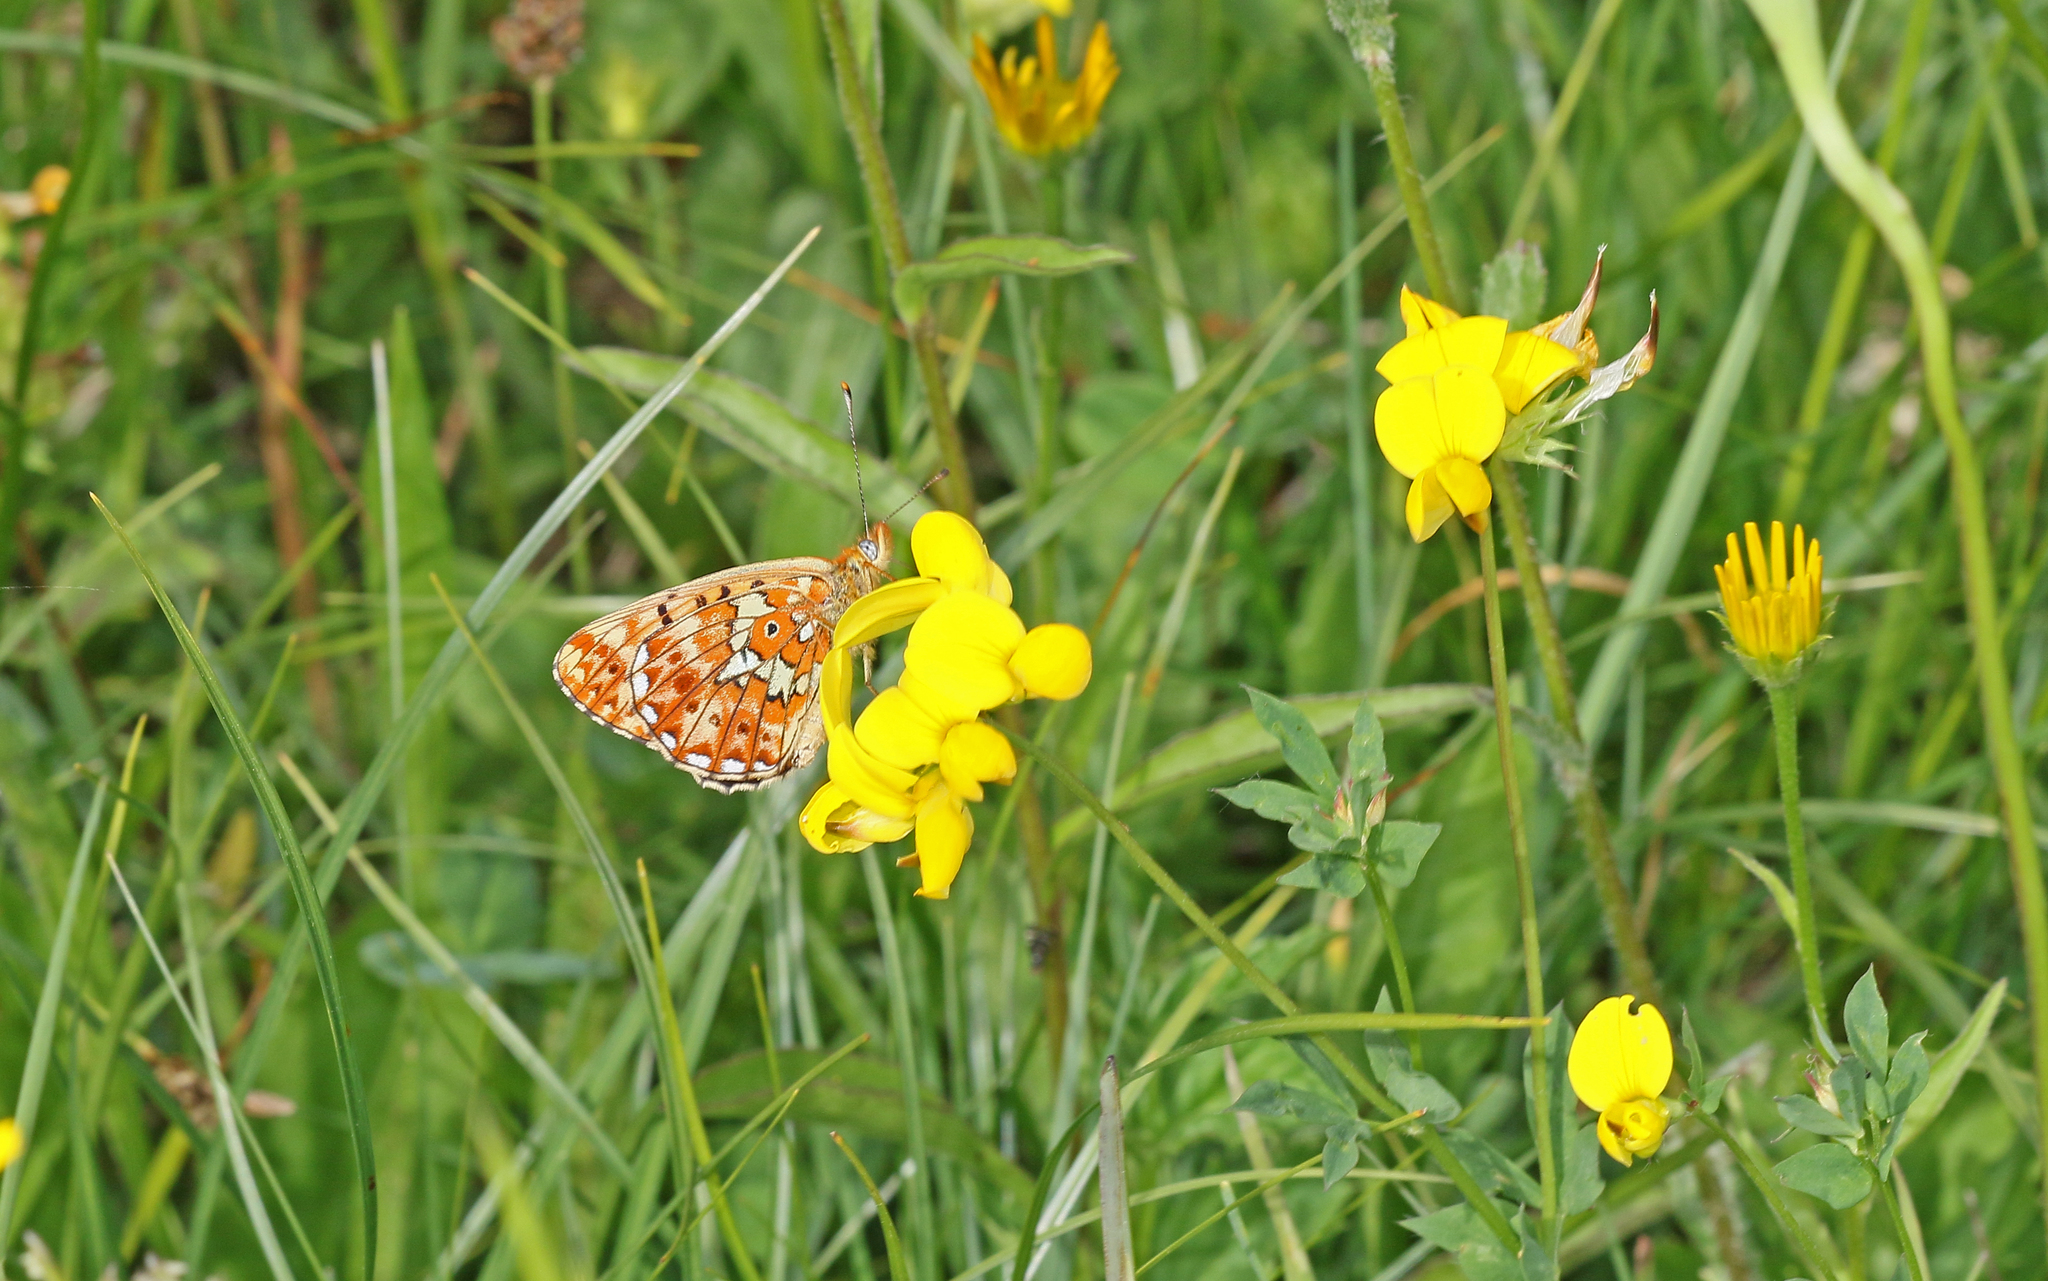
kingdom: Animalia
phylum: Arthropoda
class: Insecta
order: Lepidoptera
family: Nymphalidae
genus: Clossiana
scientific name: Clossiana euphrosyne
